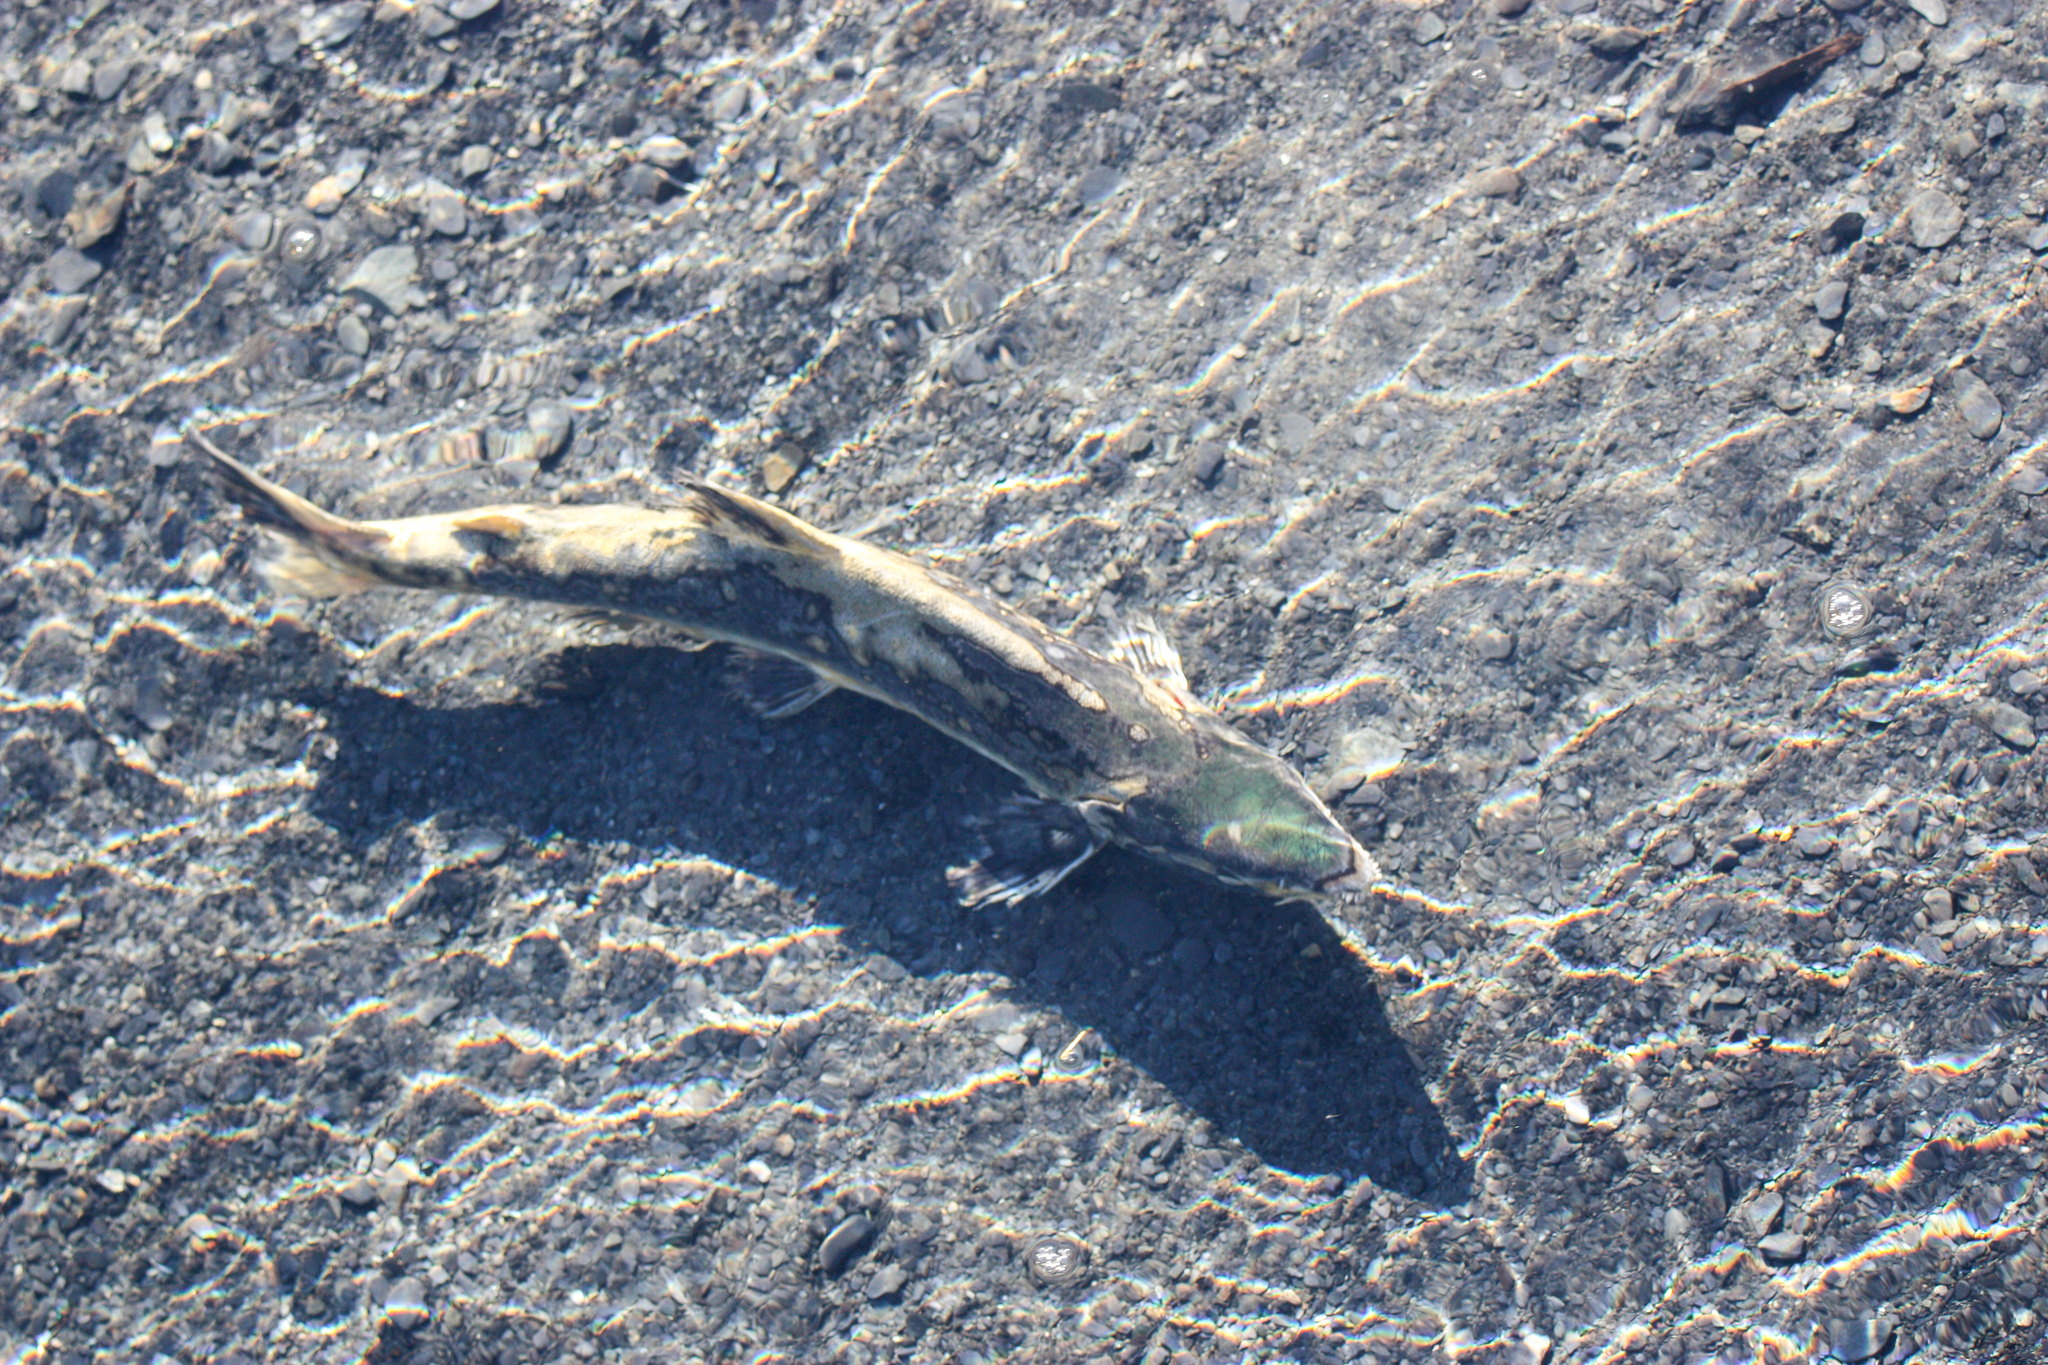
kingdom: Animalia
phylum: Chordata
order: Salmoniformes
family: Salmonidae
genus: Oncorhynchus
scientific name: Oncorhynchus gorbuscha
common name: Humpback salmon
